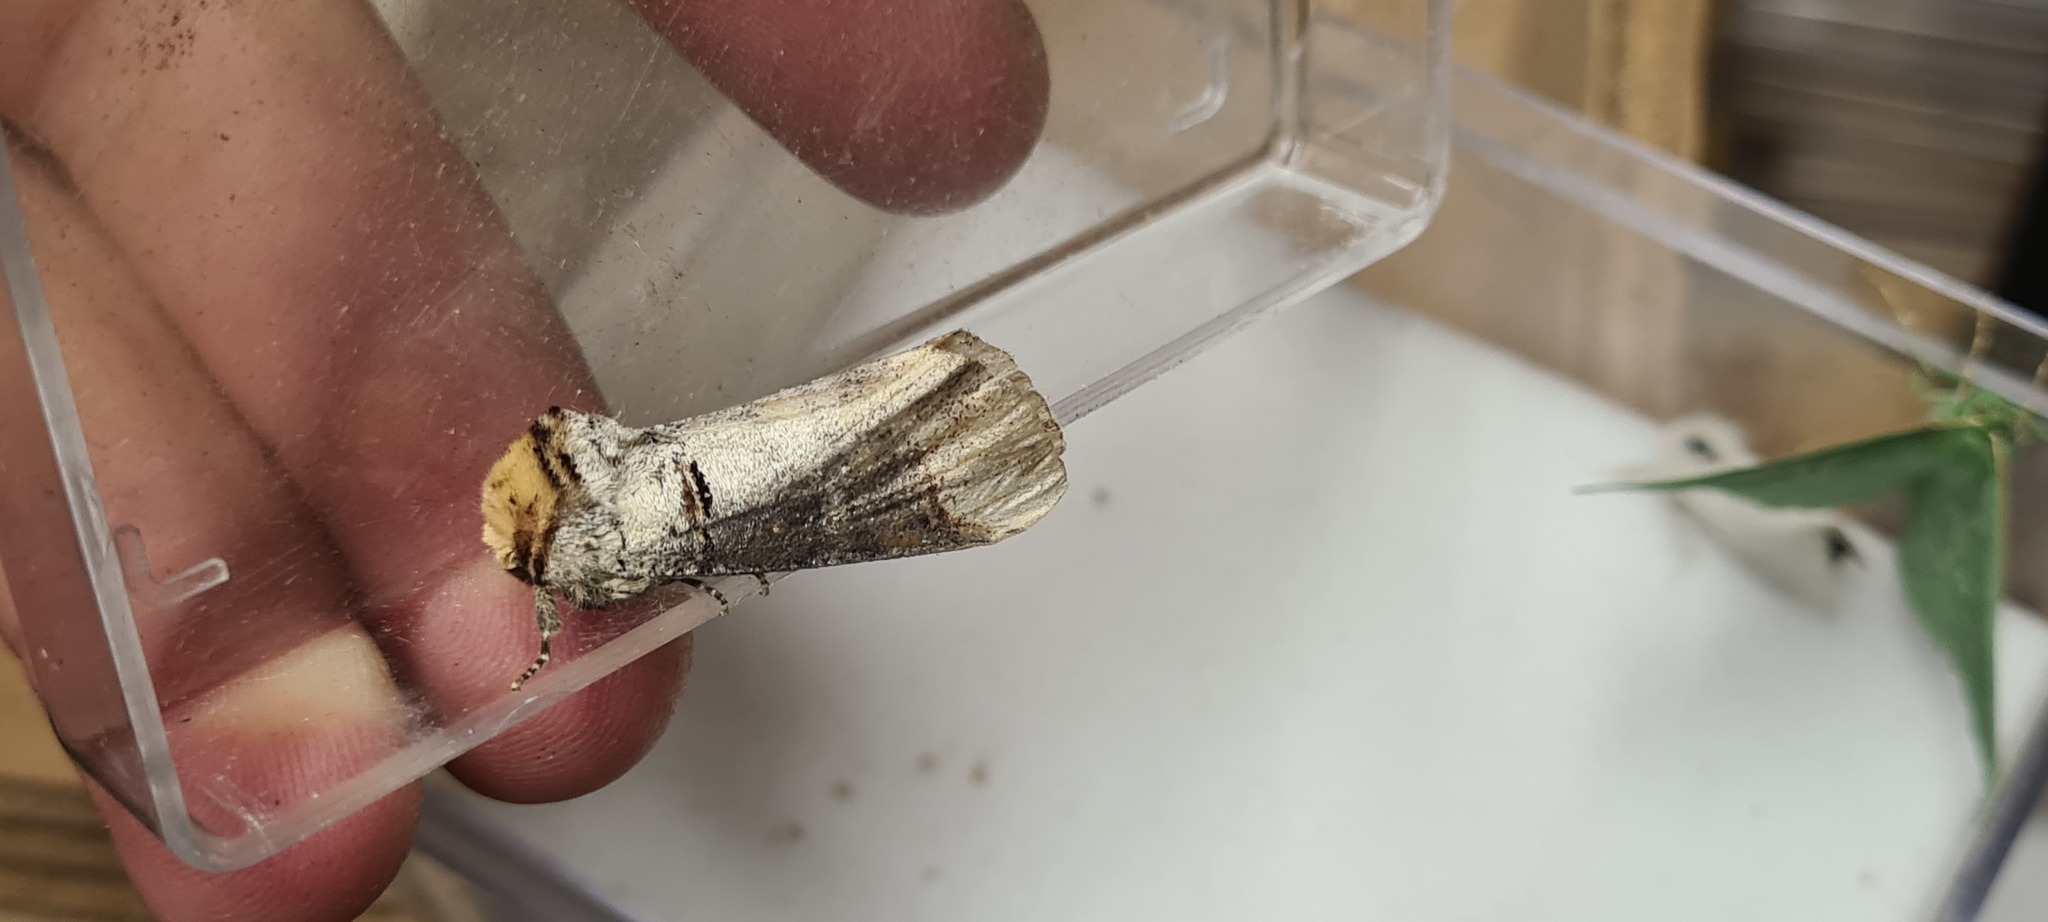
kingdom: Animalia
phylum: Arthropoda
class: Insecta
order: Lepidoptera
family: Notodontidae
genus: Phalera
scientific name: Phalera bucephala
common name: Buff-tip
